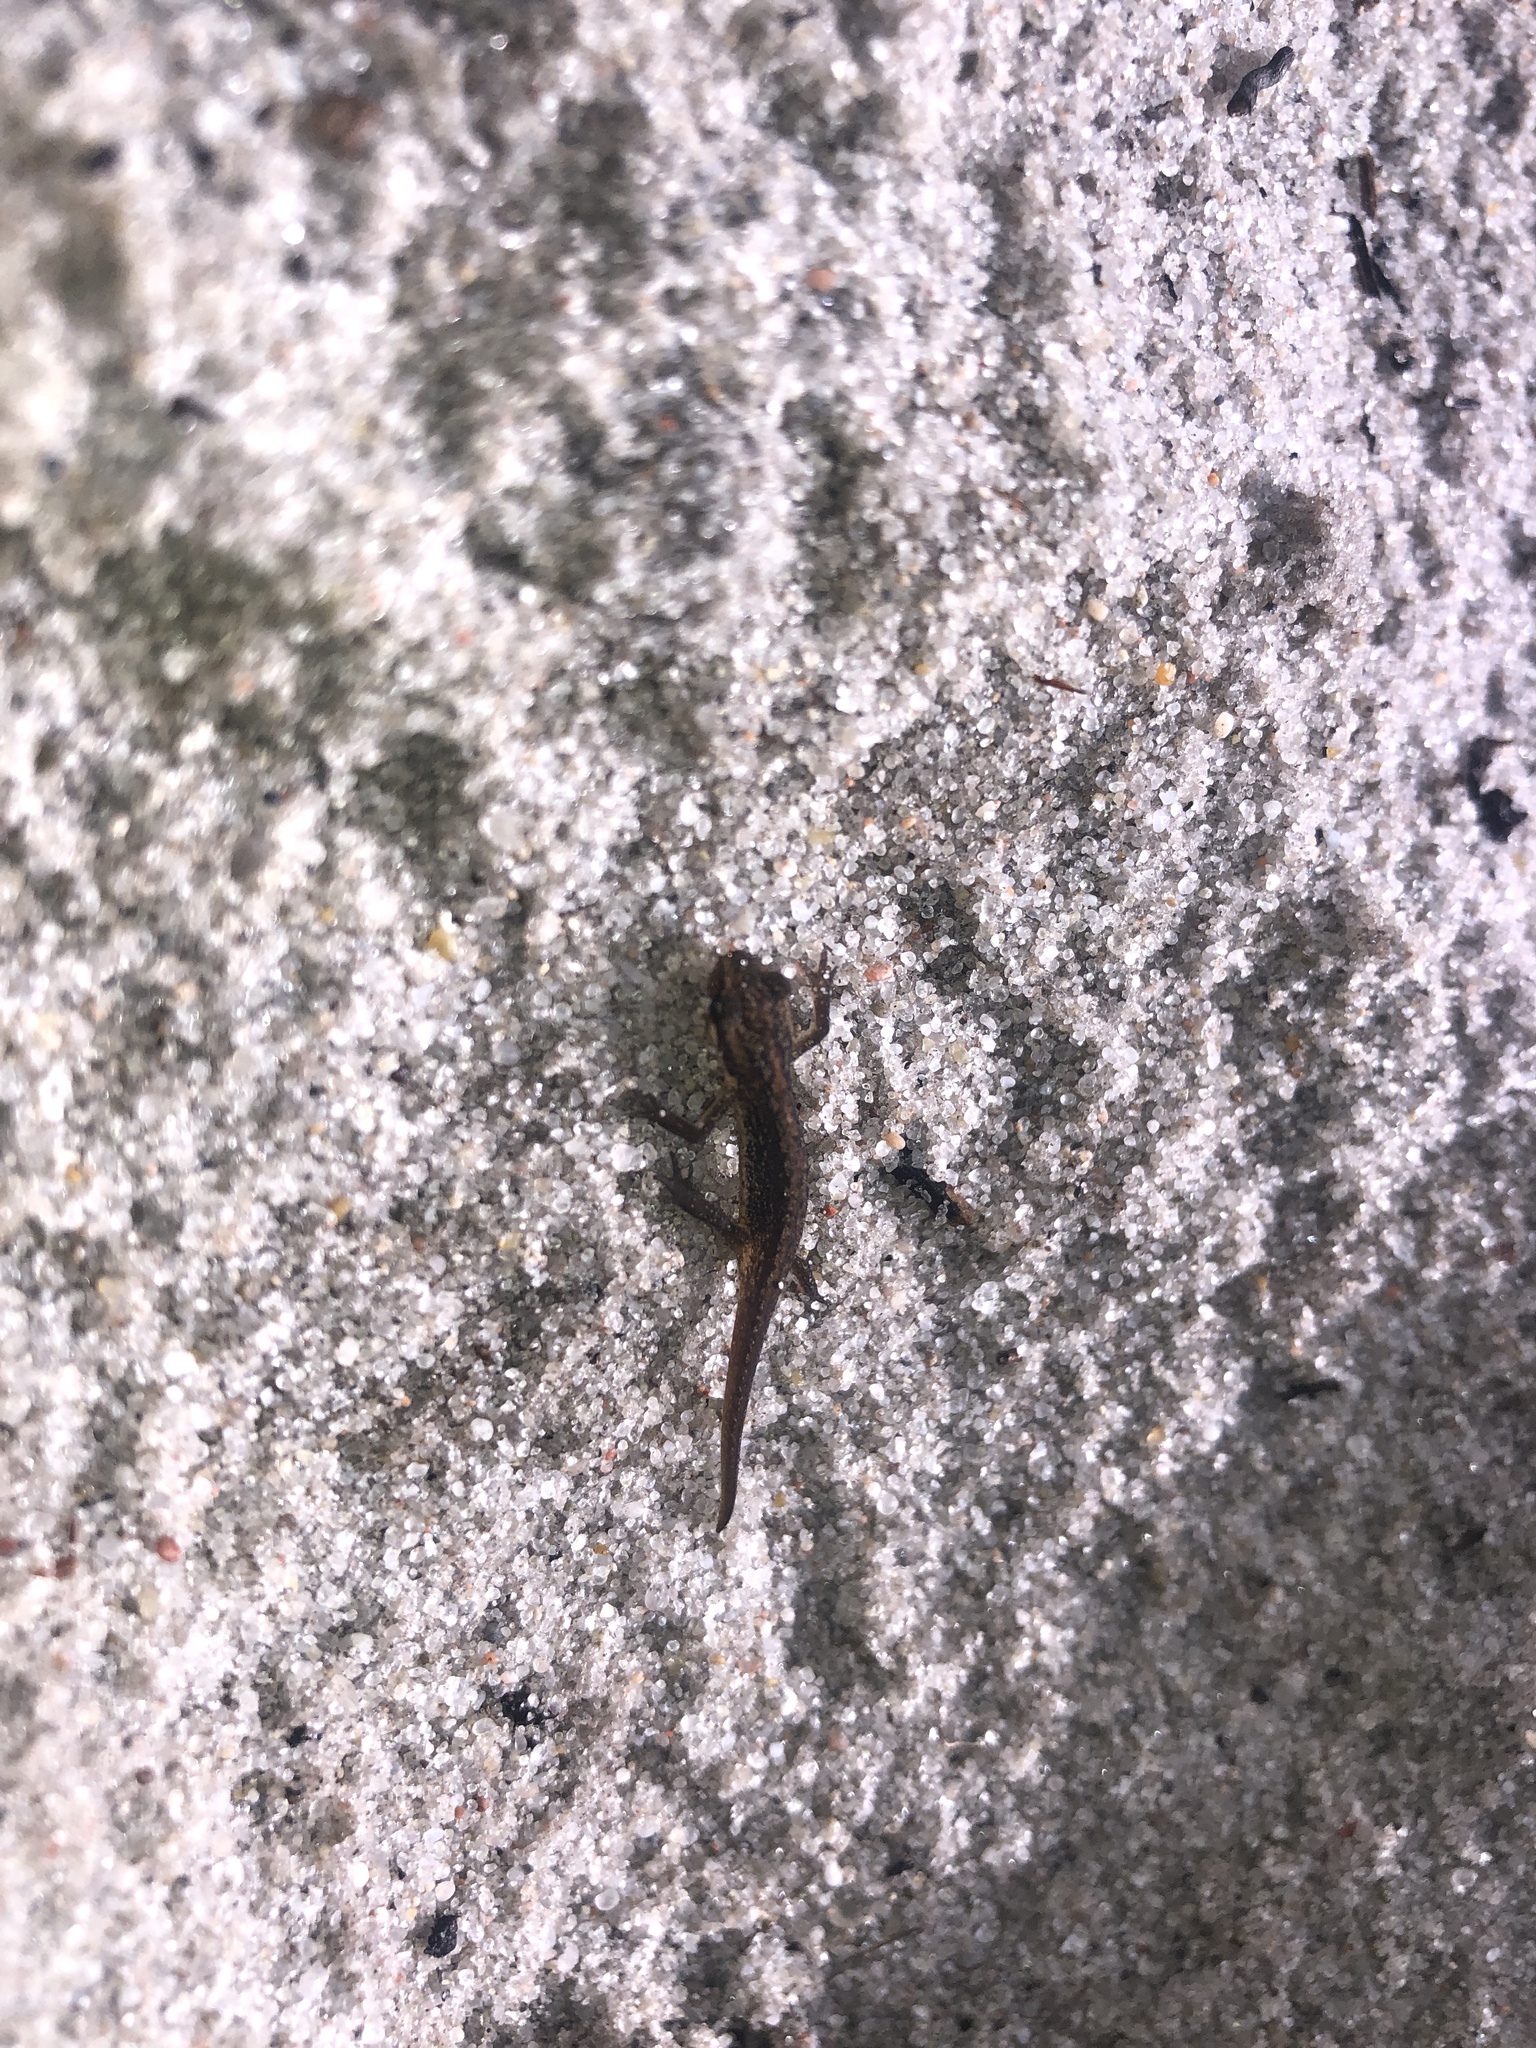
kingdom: Animalia
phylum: Chordata
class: Amphibia
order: Caudata
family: Salamandridae
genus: Lissotriton
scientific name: Lissotriton vulgaris
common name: Smooth newt
